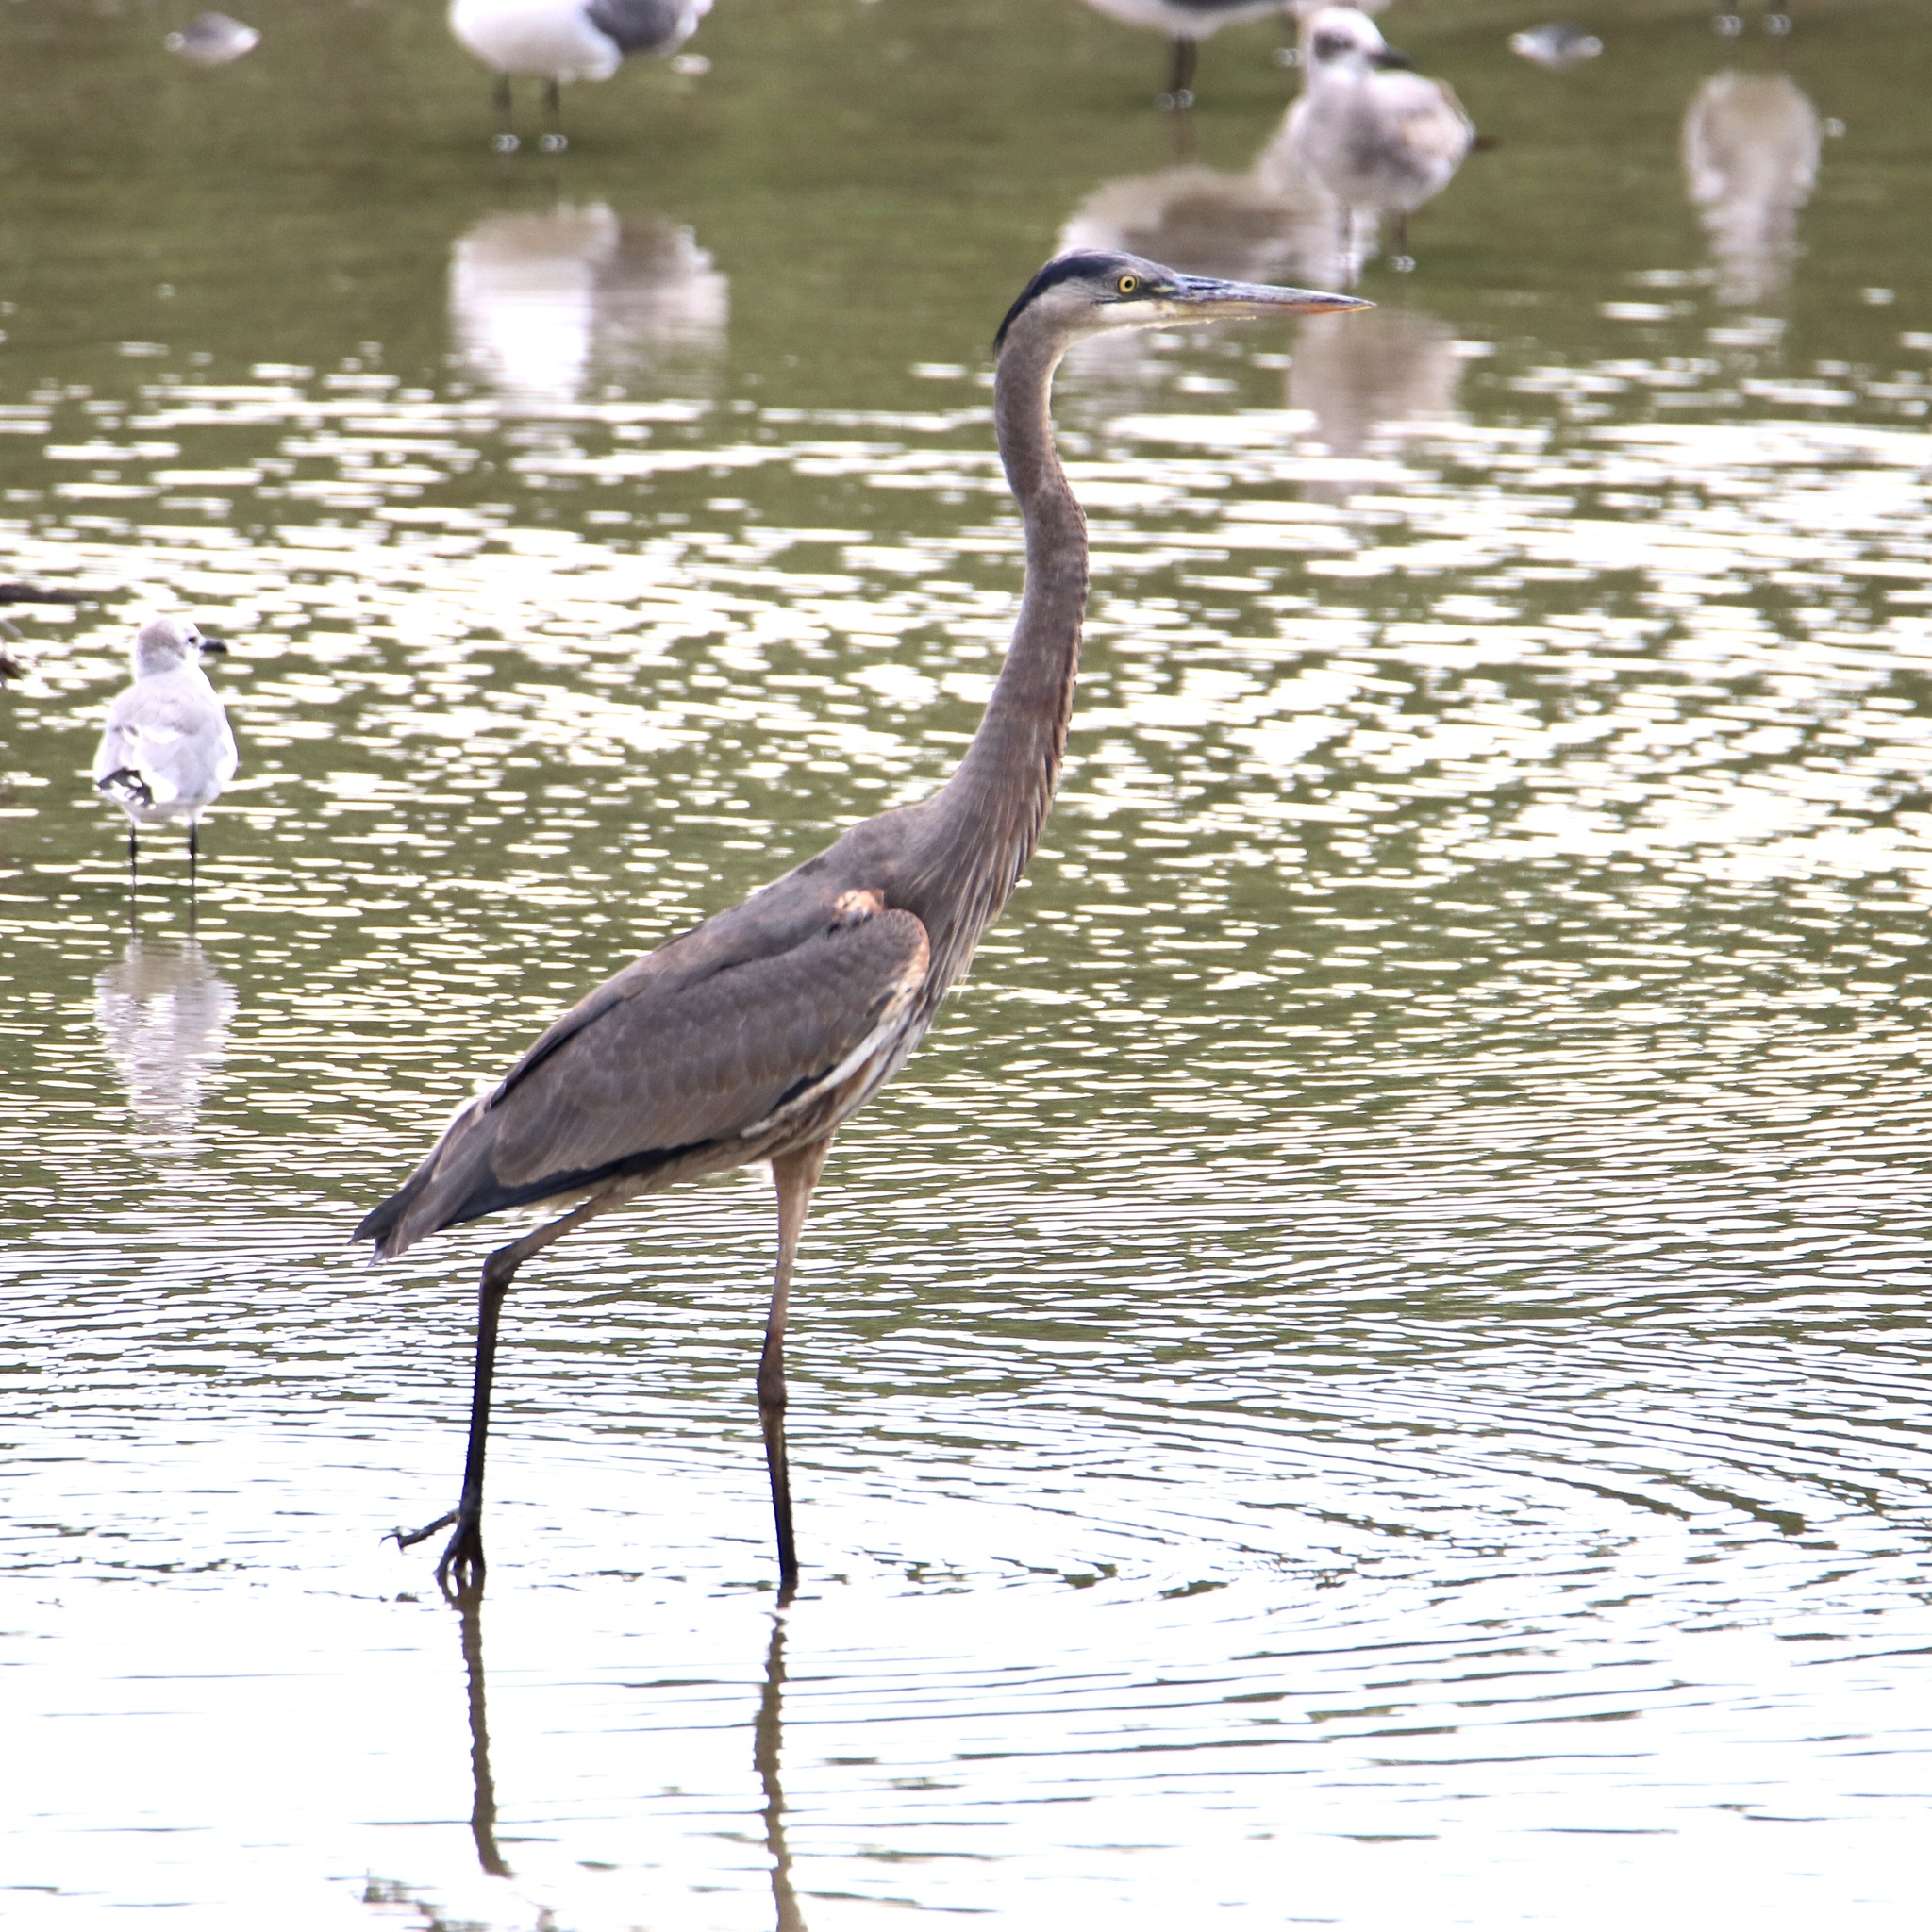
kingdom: Animalia
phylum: Chordata
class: Aves
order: Pelecaniformes
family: Ardeidae
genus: Ardea
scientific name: Ardea herodias
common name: Great blue heron
